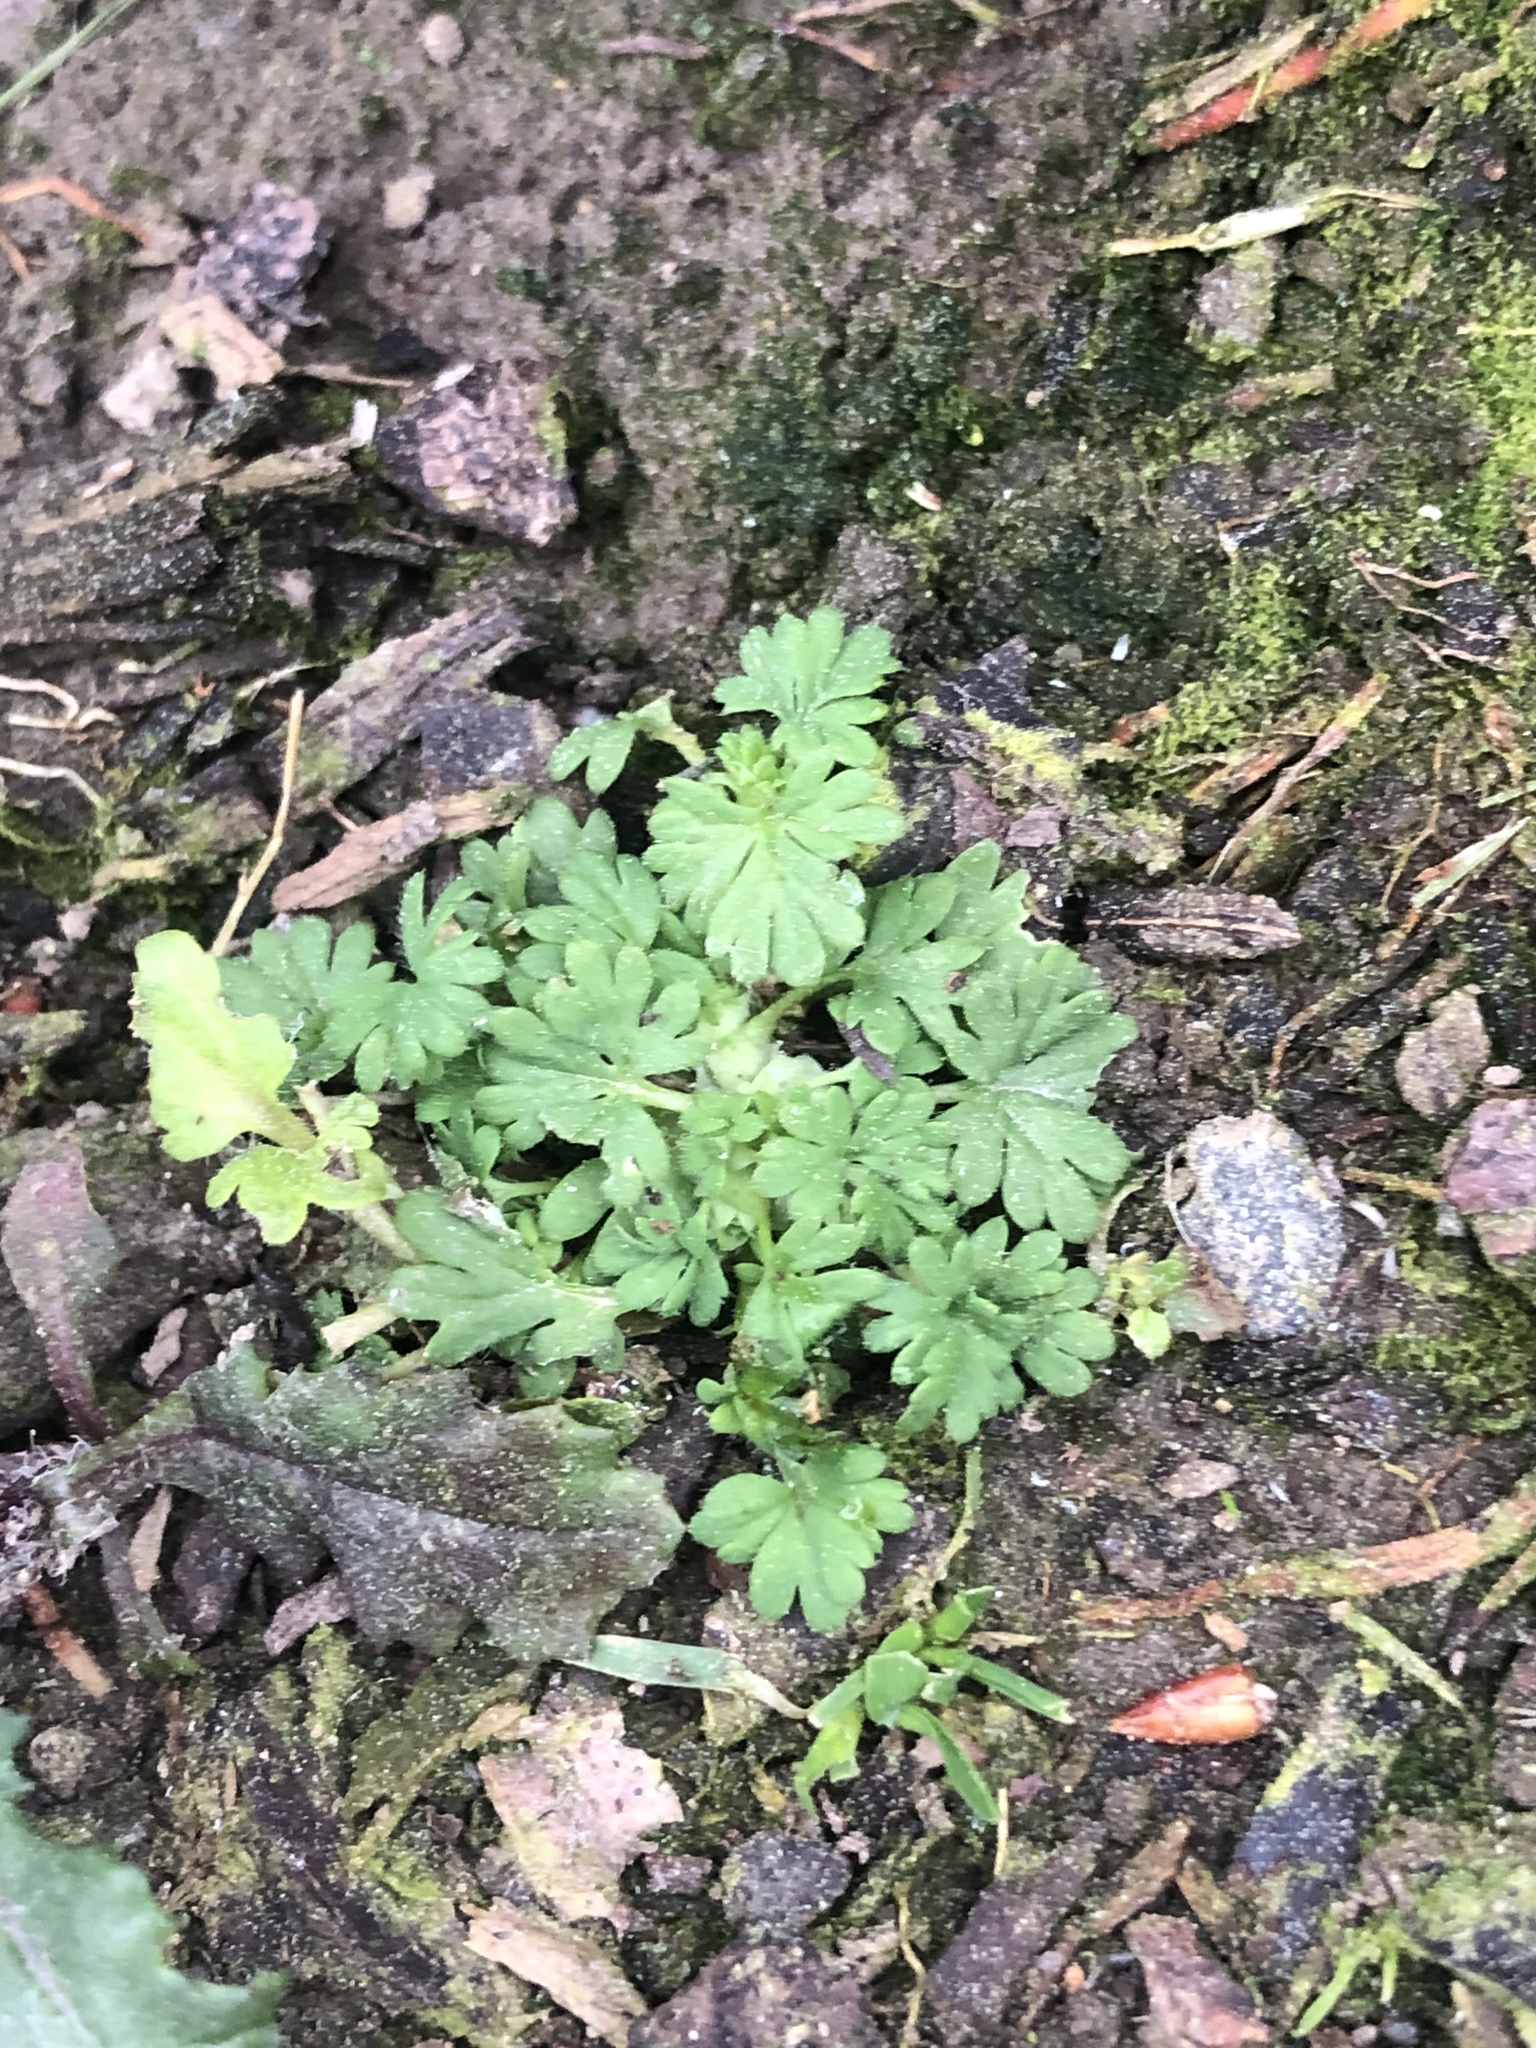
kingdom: Plantae
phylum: Tracheophyta
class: Magnoliopsida
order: Rosales
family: Rosaceae
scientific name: Rosaceae
